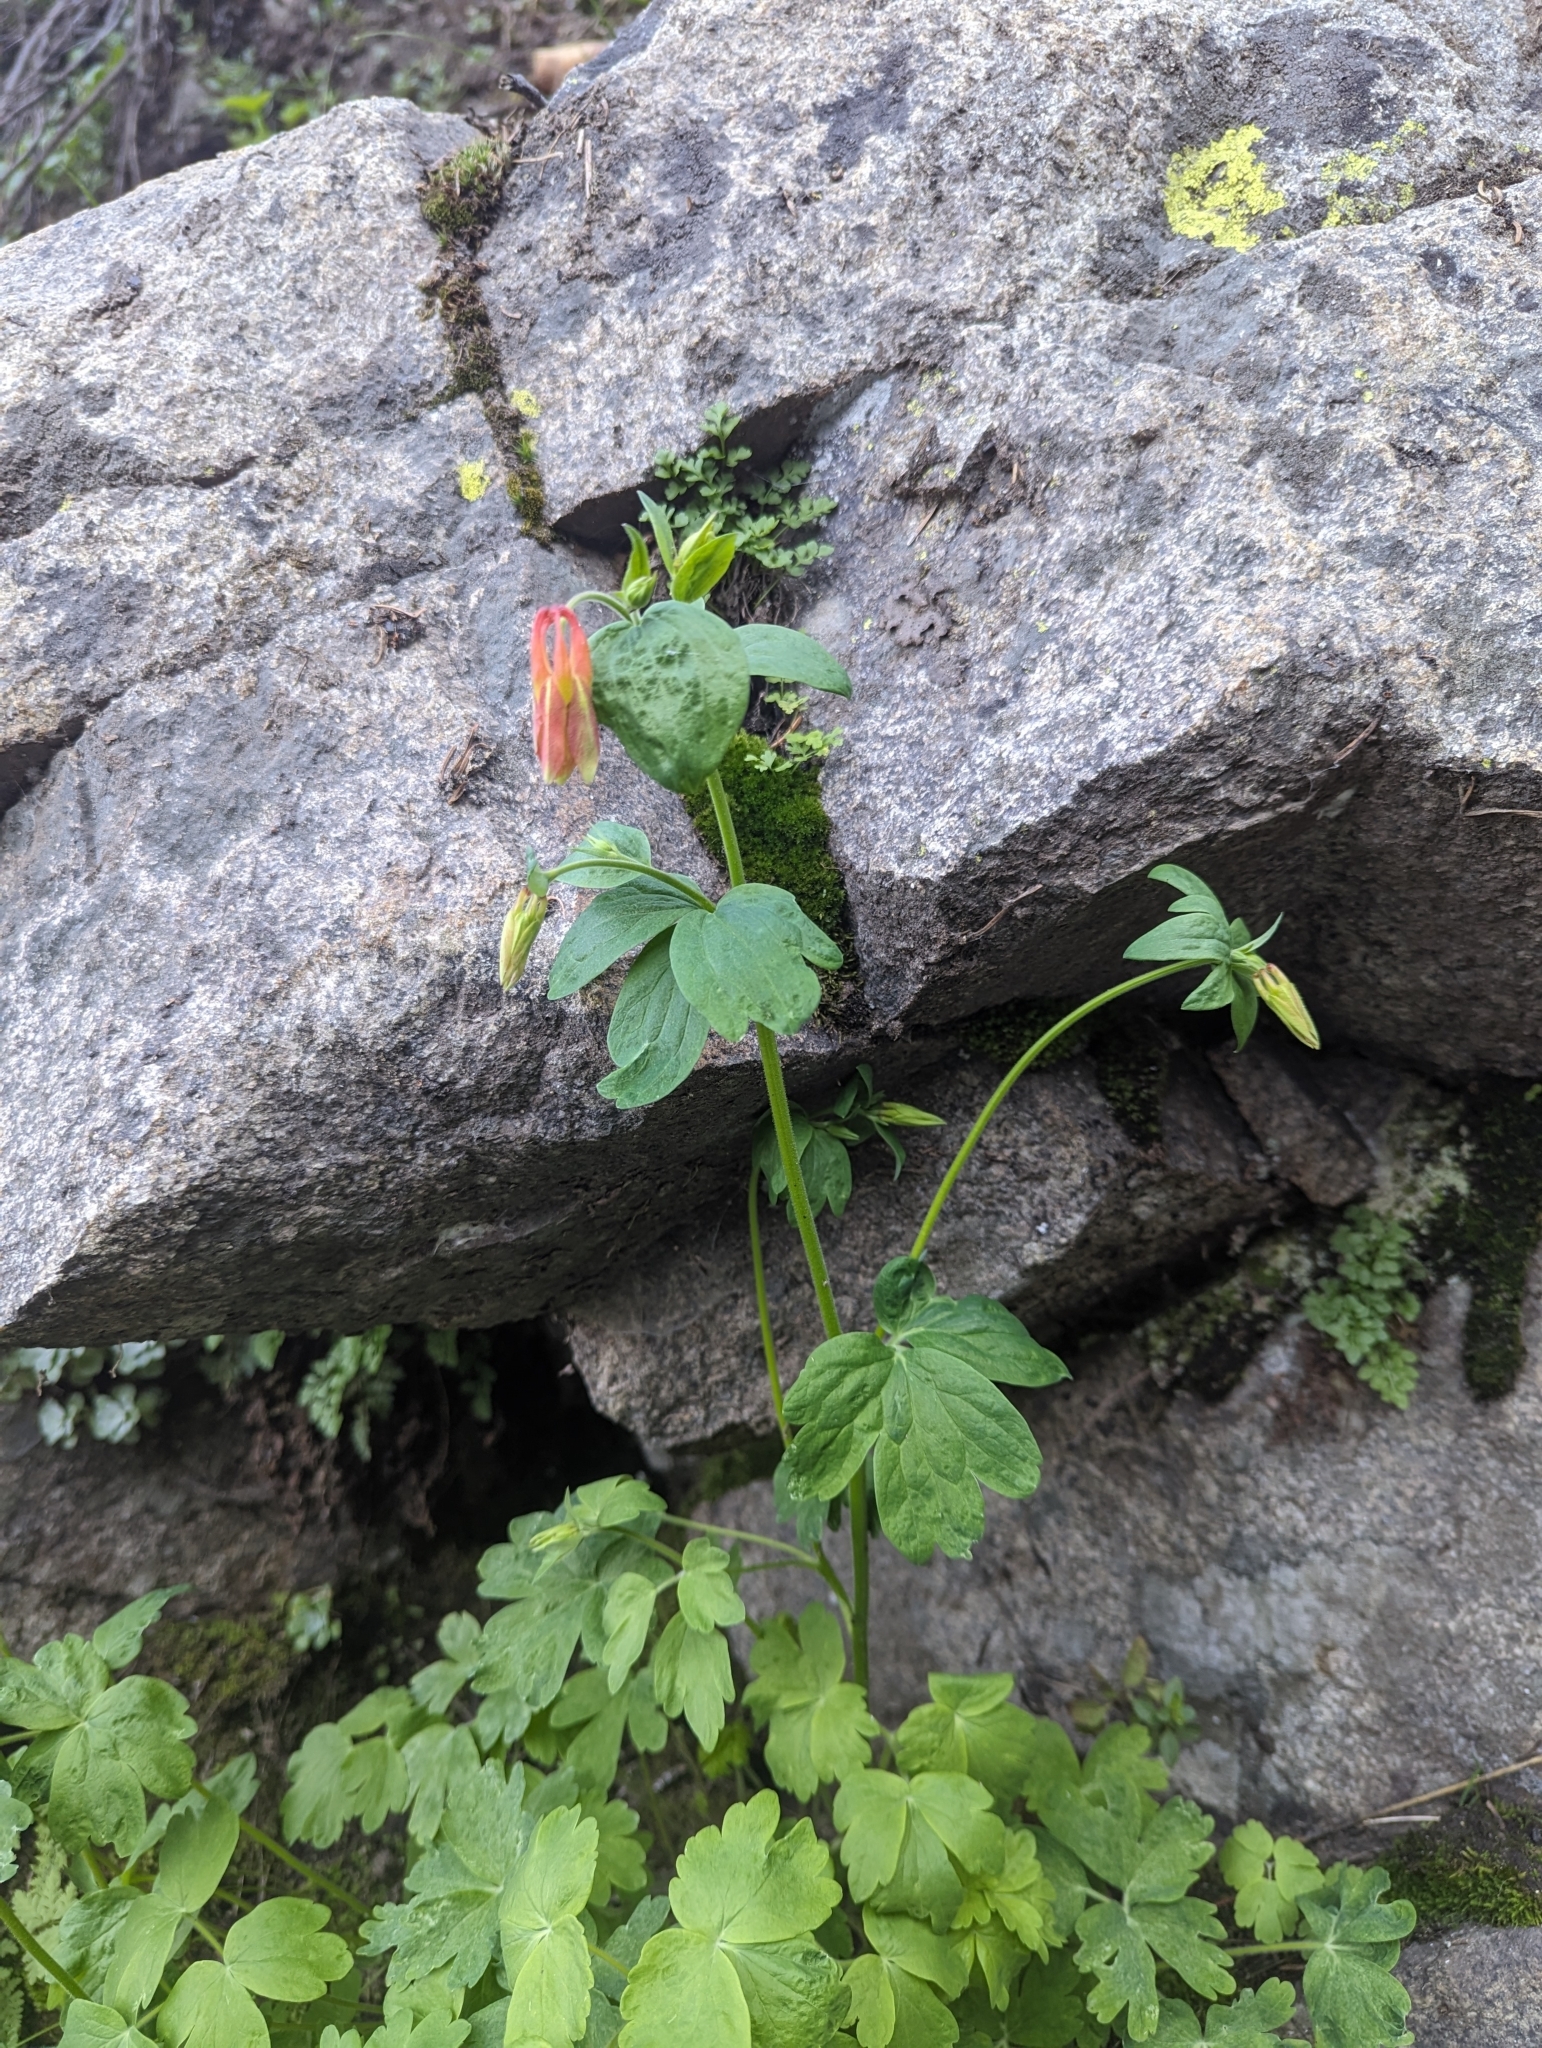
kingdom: Plantae
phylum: Tracheophyta
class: Magnoliopsida
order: Ranunculales
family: Ranunculaceae
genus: Aquilegia
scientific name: Aquilegia formosa
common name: Sitka columbine
